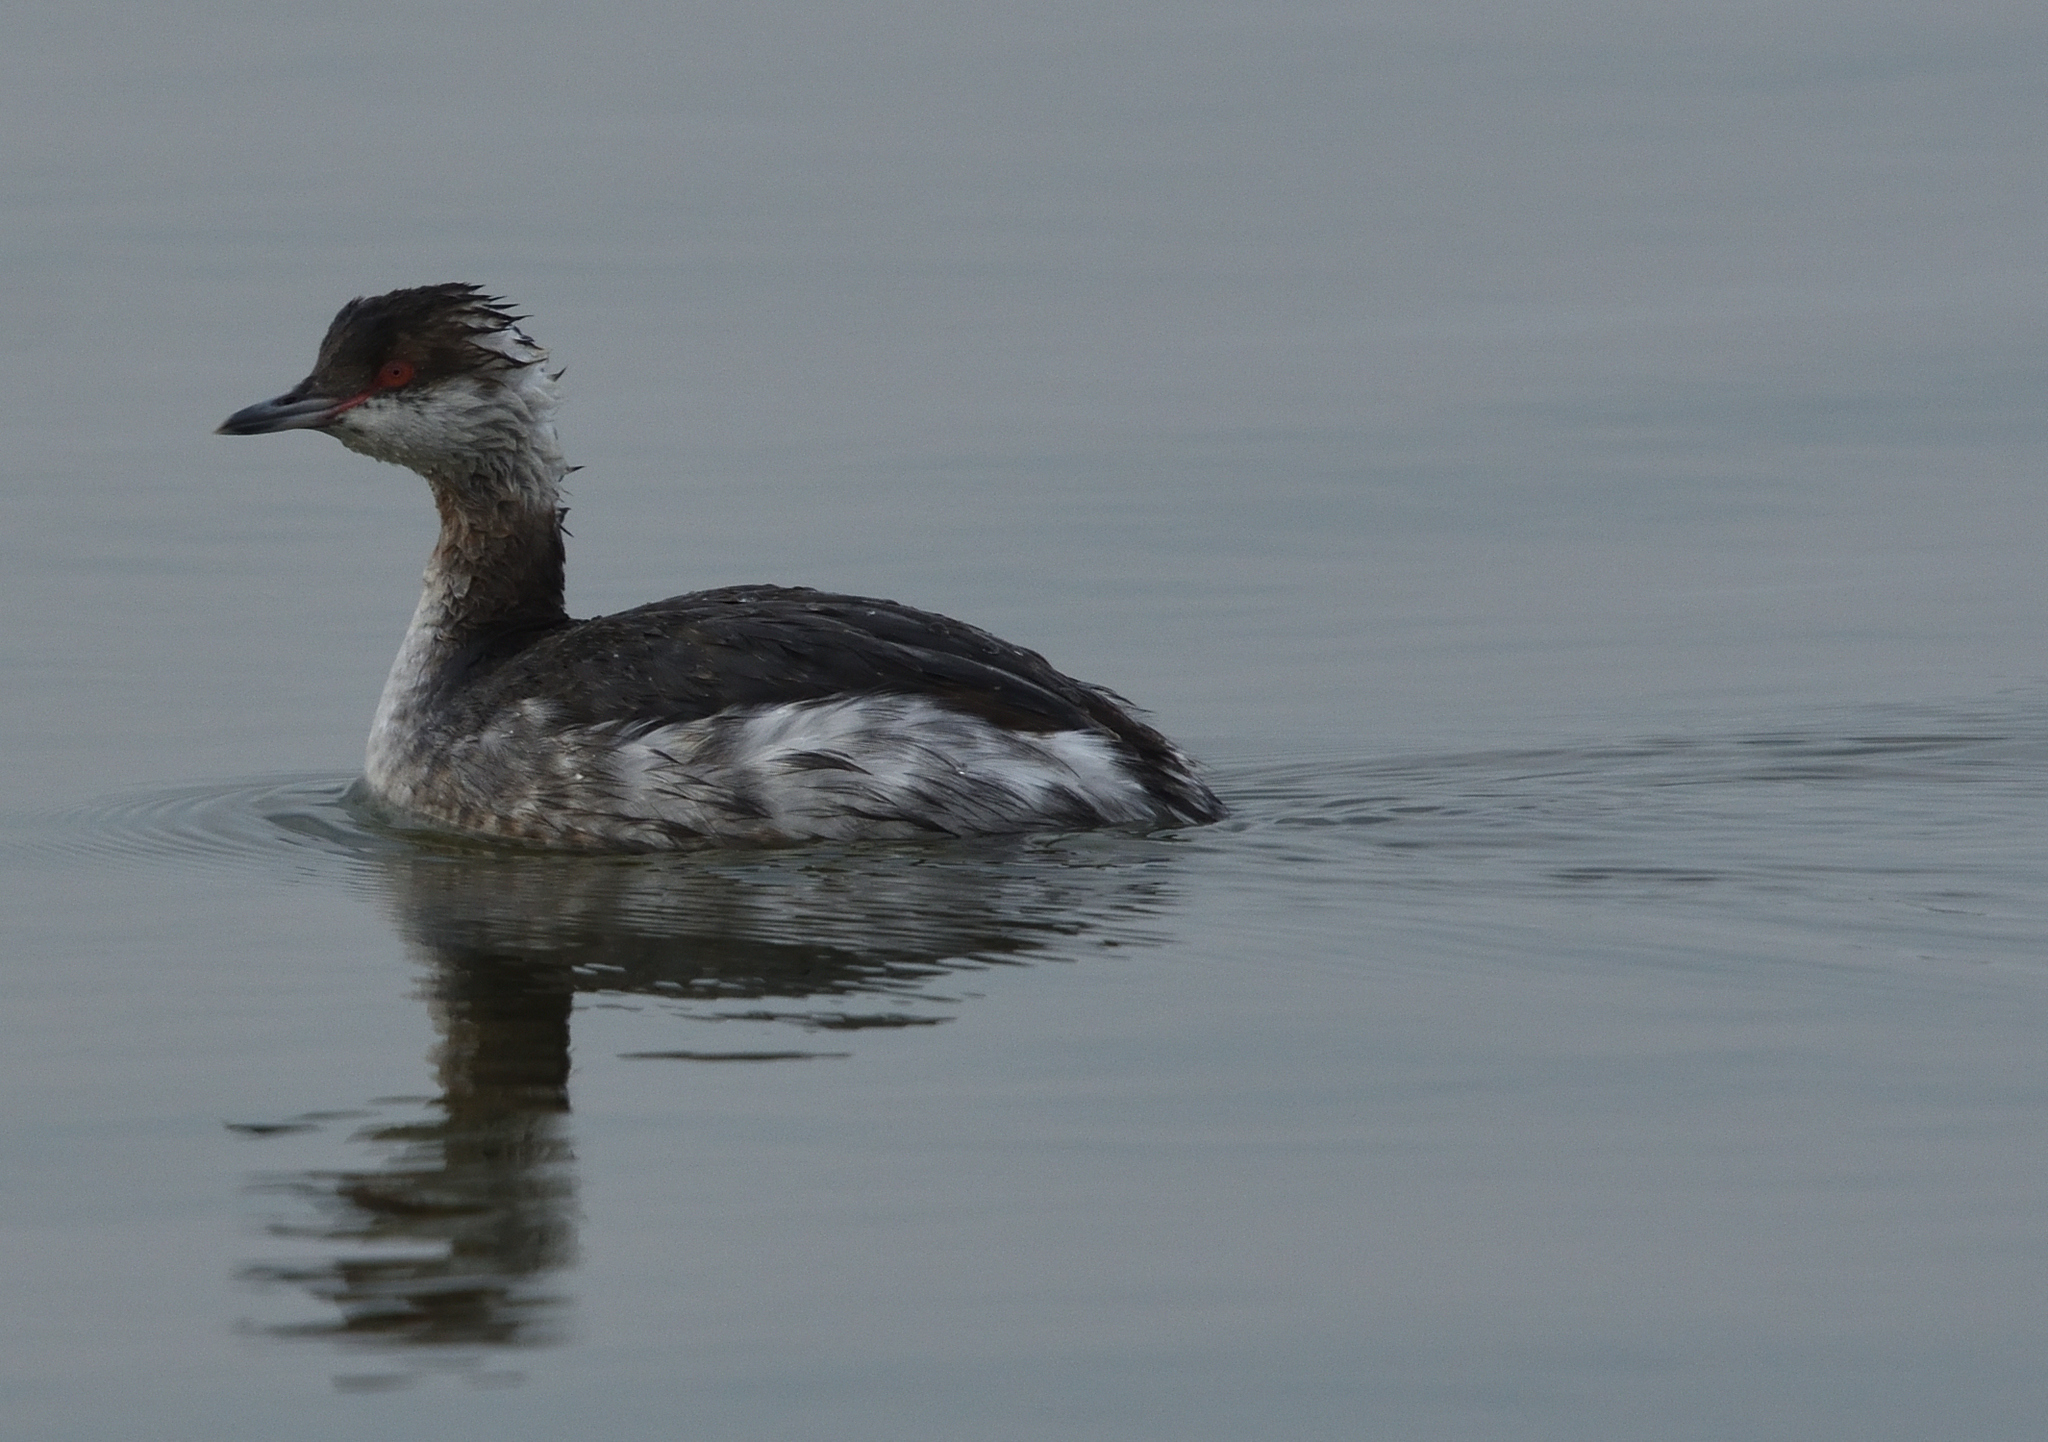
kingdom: Animalia
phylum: Chordata
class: Aves
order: Podicipediformes
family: Podicipedidae
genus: Podiceps
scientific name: Podiceps auritus
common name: Horned grebe
